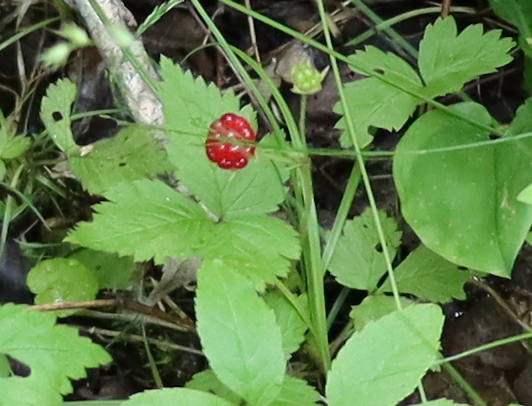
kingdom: Plantae
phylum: Tracheophyta
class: Magnoliopsida
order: Rosales
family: Rosaceae
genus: Rubus
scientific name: Rubus pubescens
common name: Dwarf raspberry
